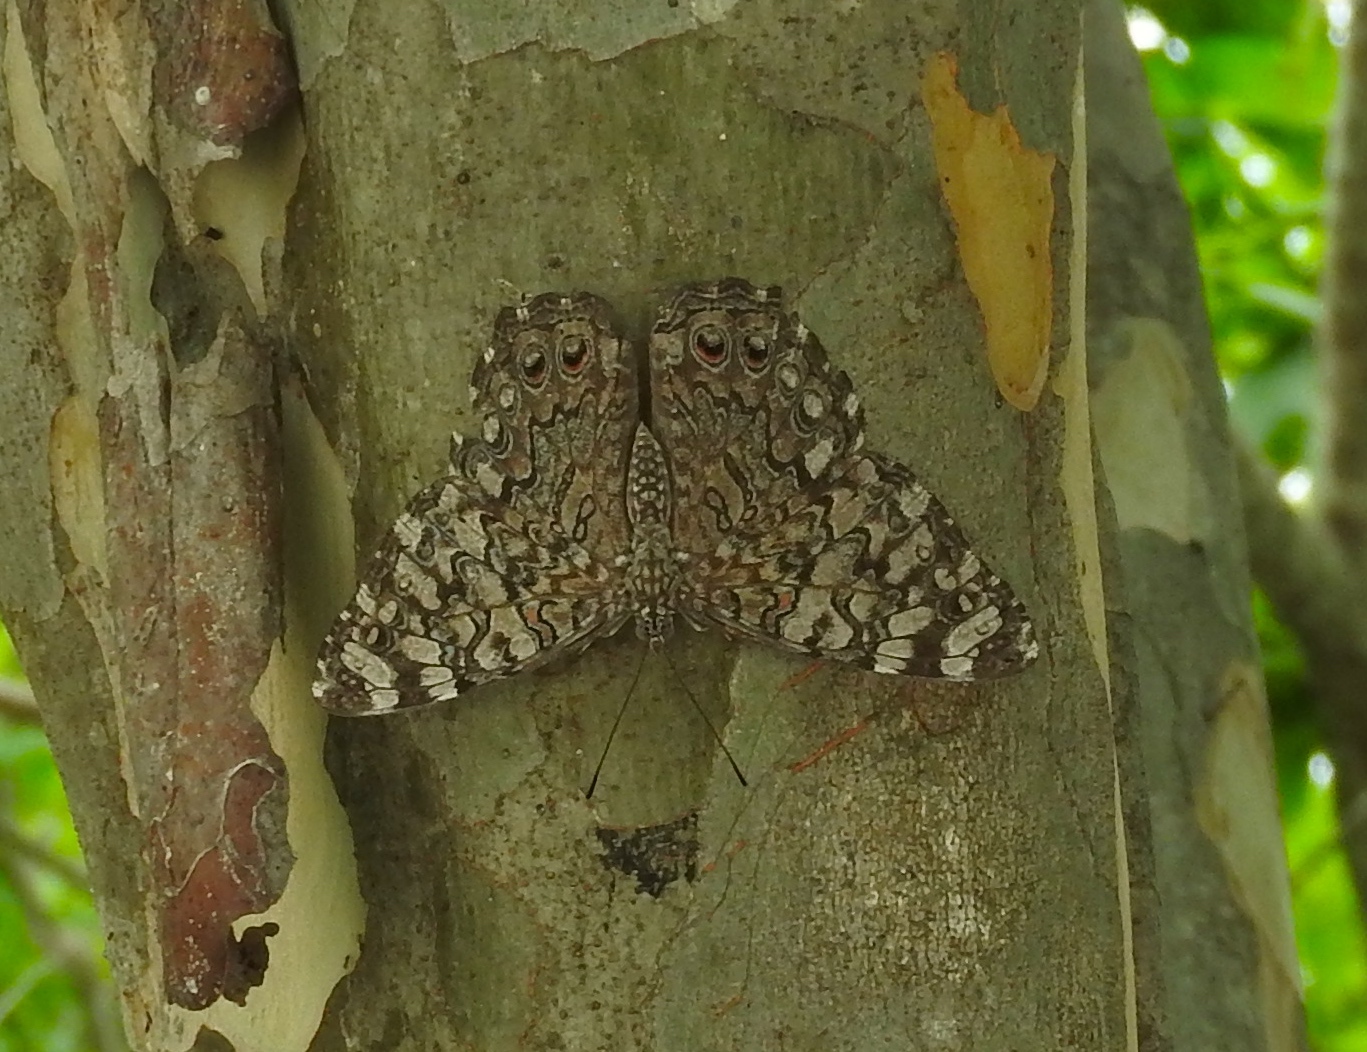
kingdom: Animalia
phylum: Arthropoda
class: Insecta
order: Lepidoptera
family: Nymphalidae
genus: Hamadryas
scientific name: Hamadryas februa
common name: Gray cracker
